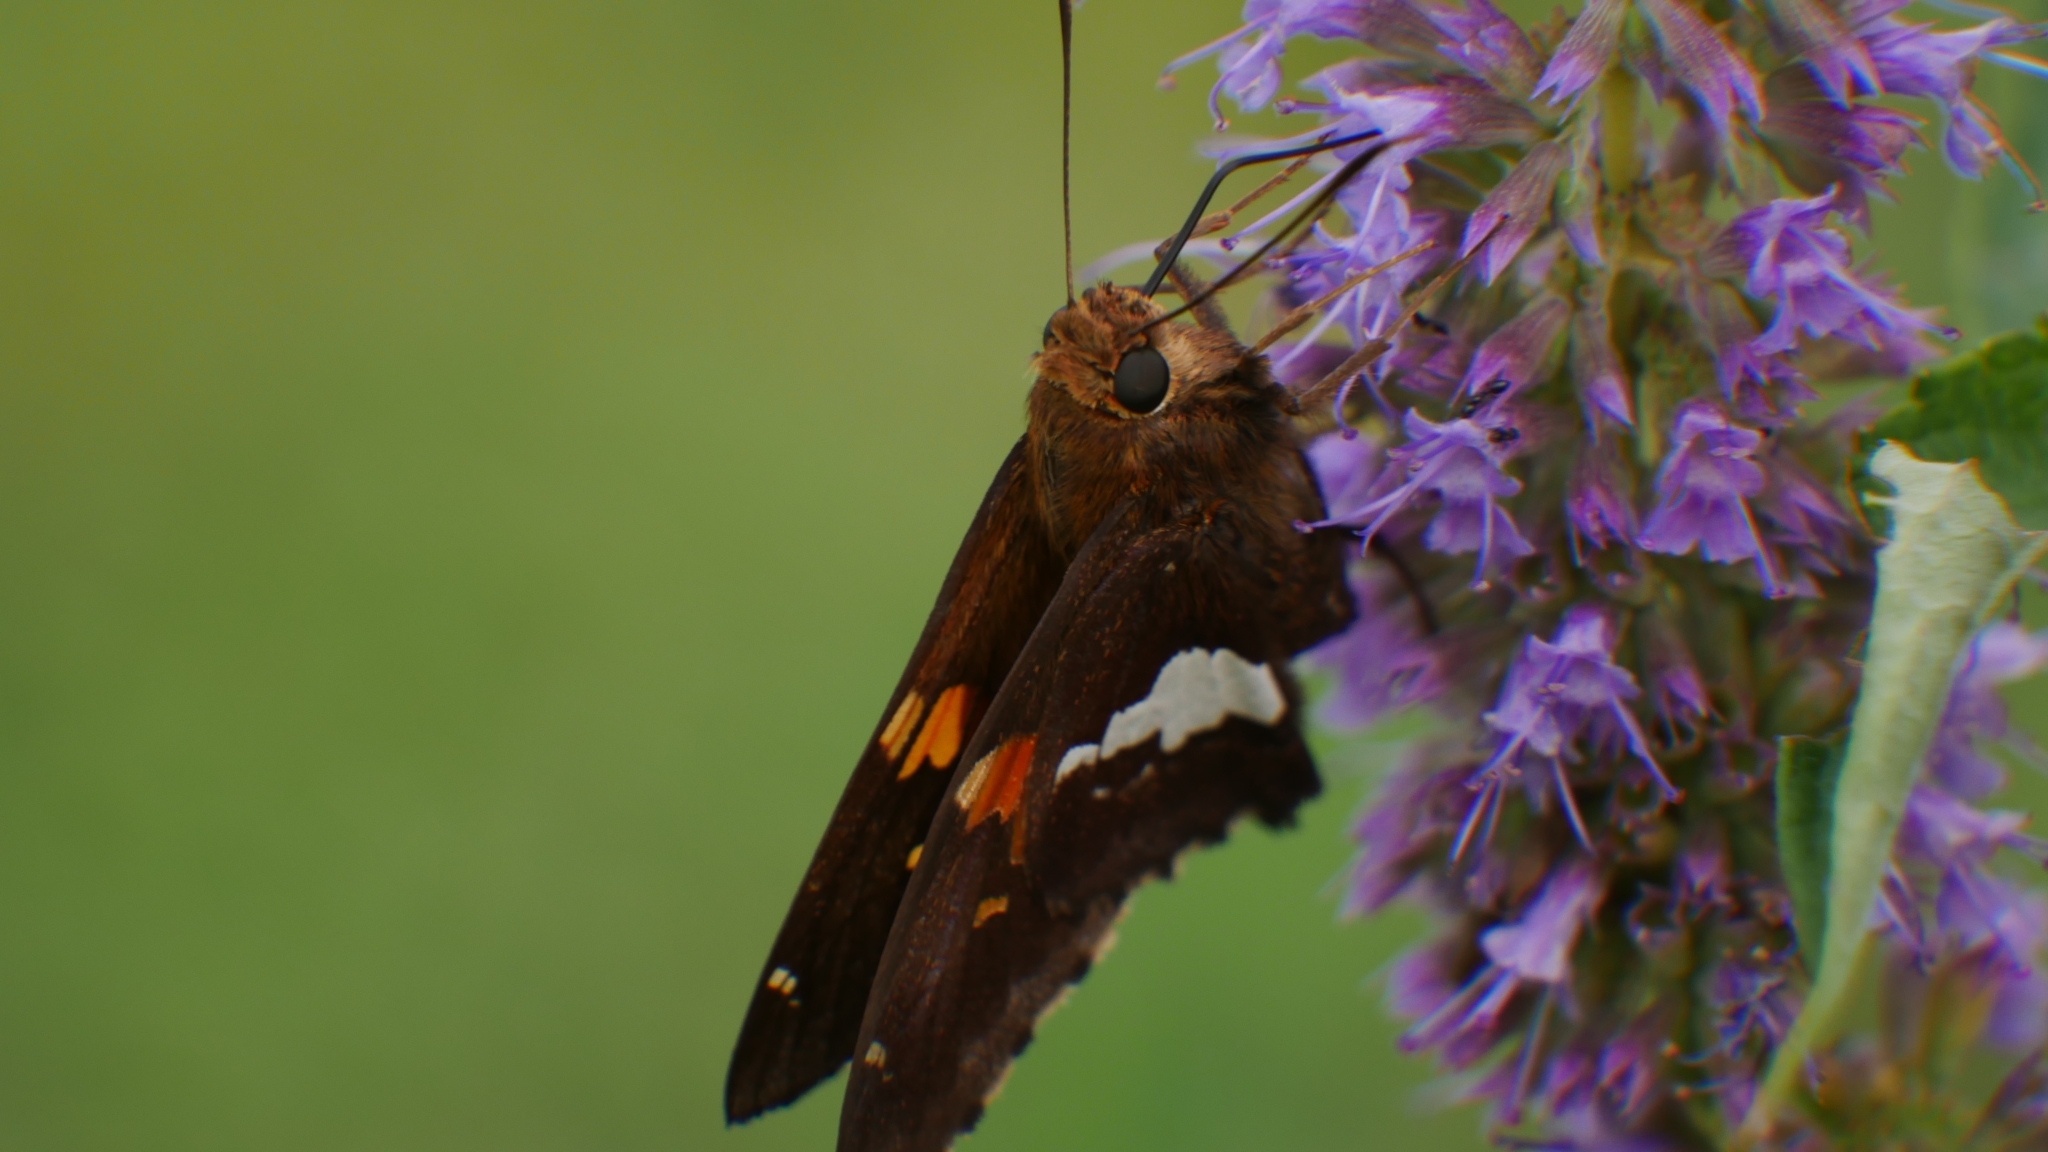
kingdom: Animalia
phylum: Arthropoda
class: Insecta
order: Lepidoptera
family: Hesperiidae
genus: Epargyreus
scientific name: Epargyreus clarus
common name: Silver-spotted skipper
